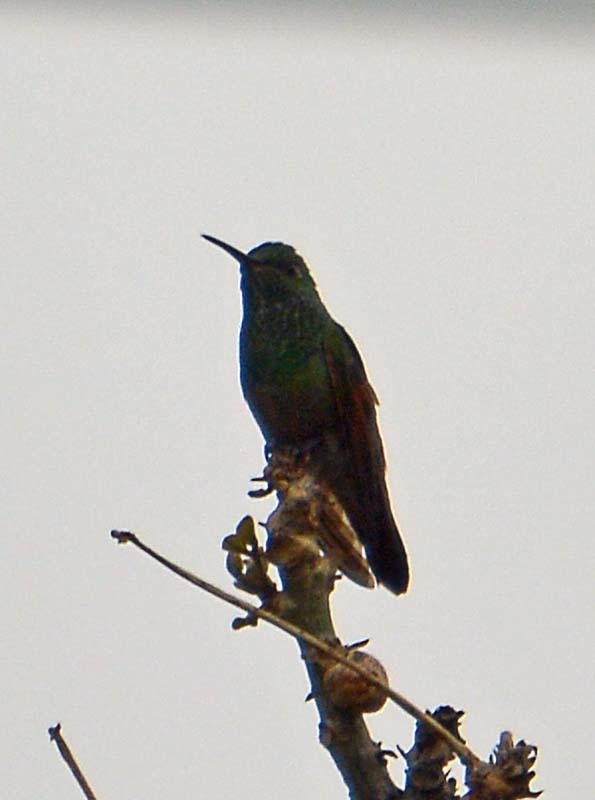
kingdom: Animalia
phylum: Chordata
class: Aves
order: Apodiformes
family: Trochilidae
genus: Saucerottia
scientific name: Saucerottia beryllina
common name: Berylline hummingbird
